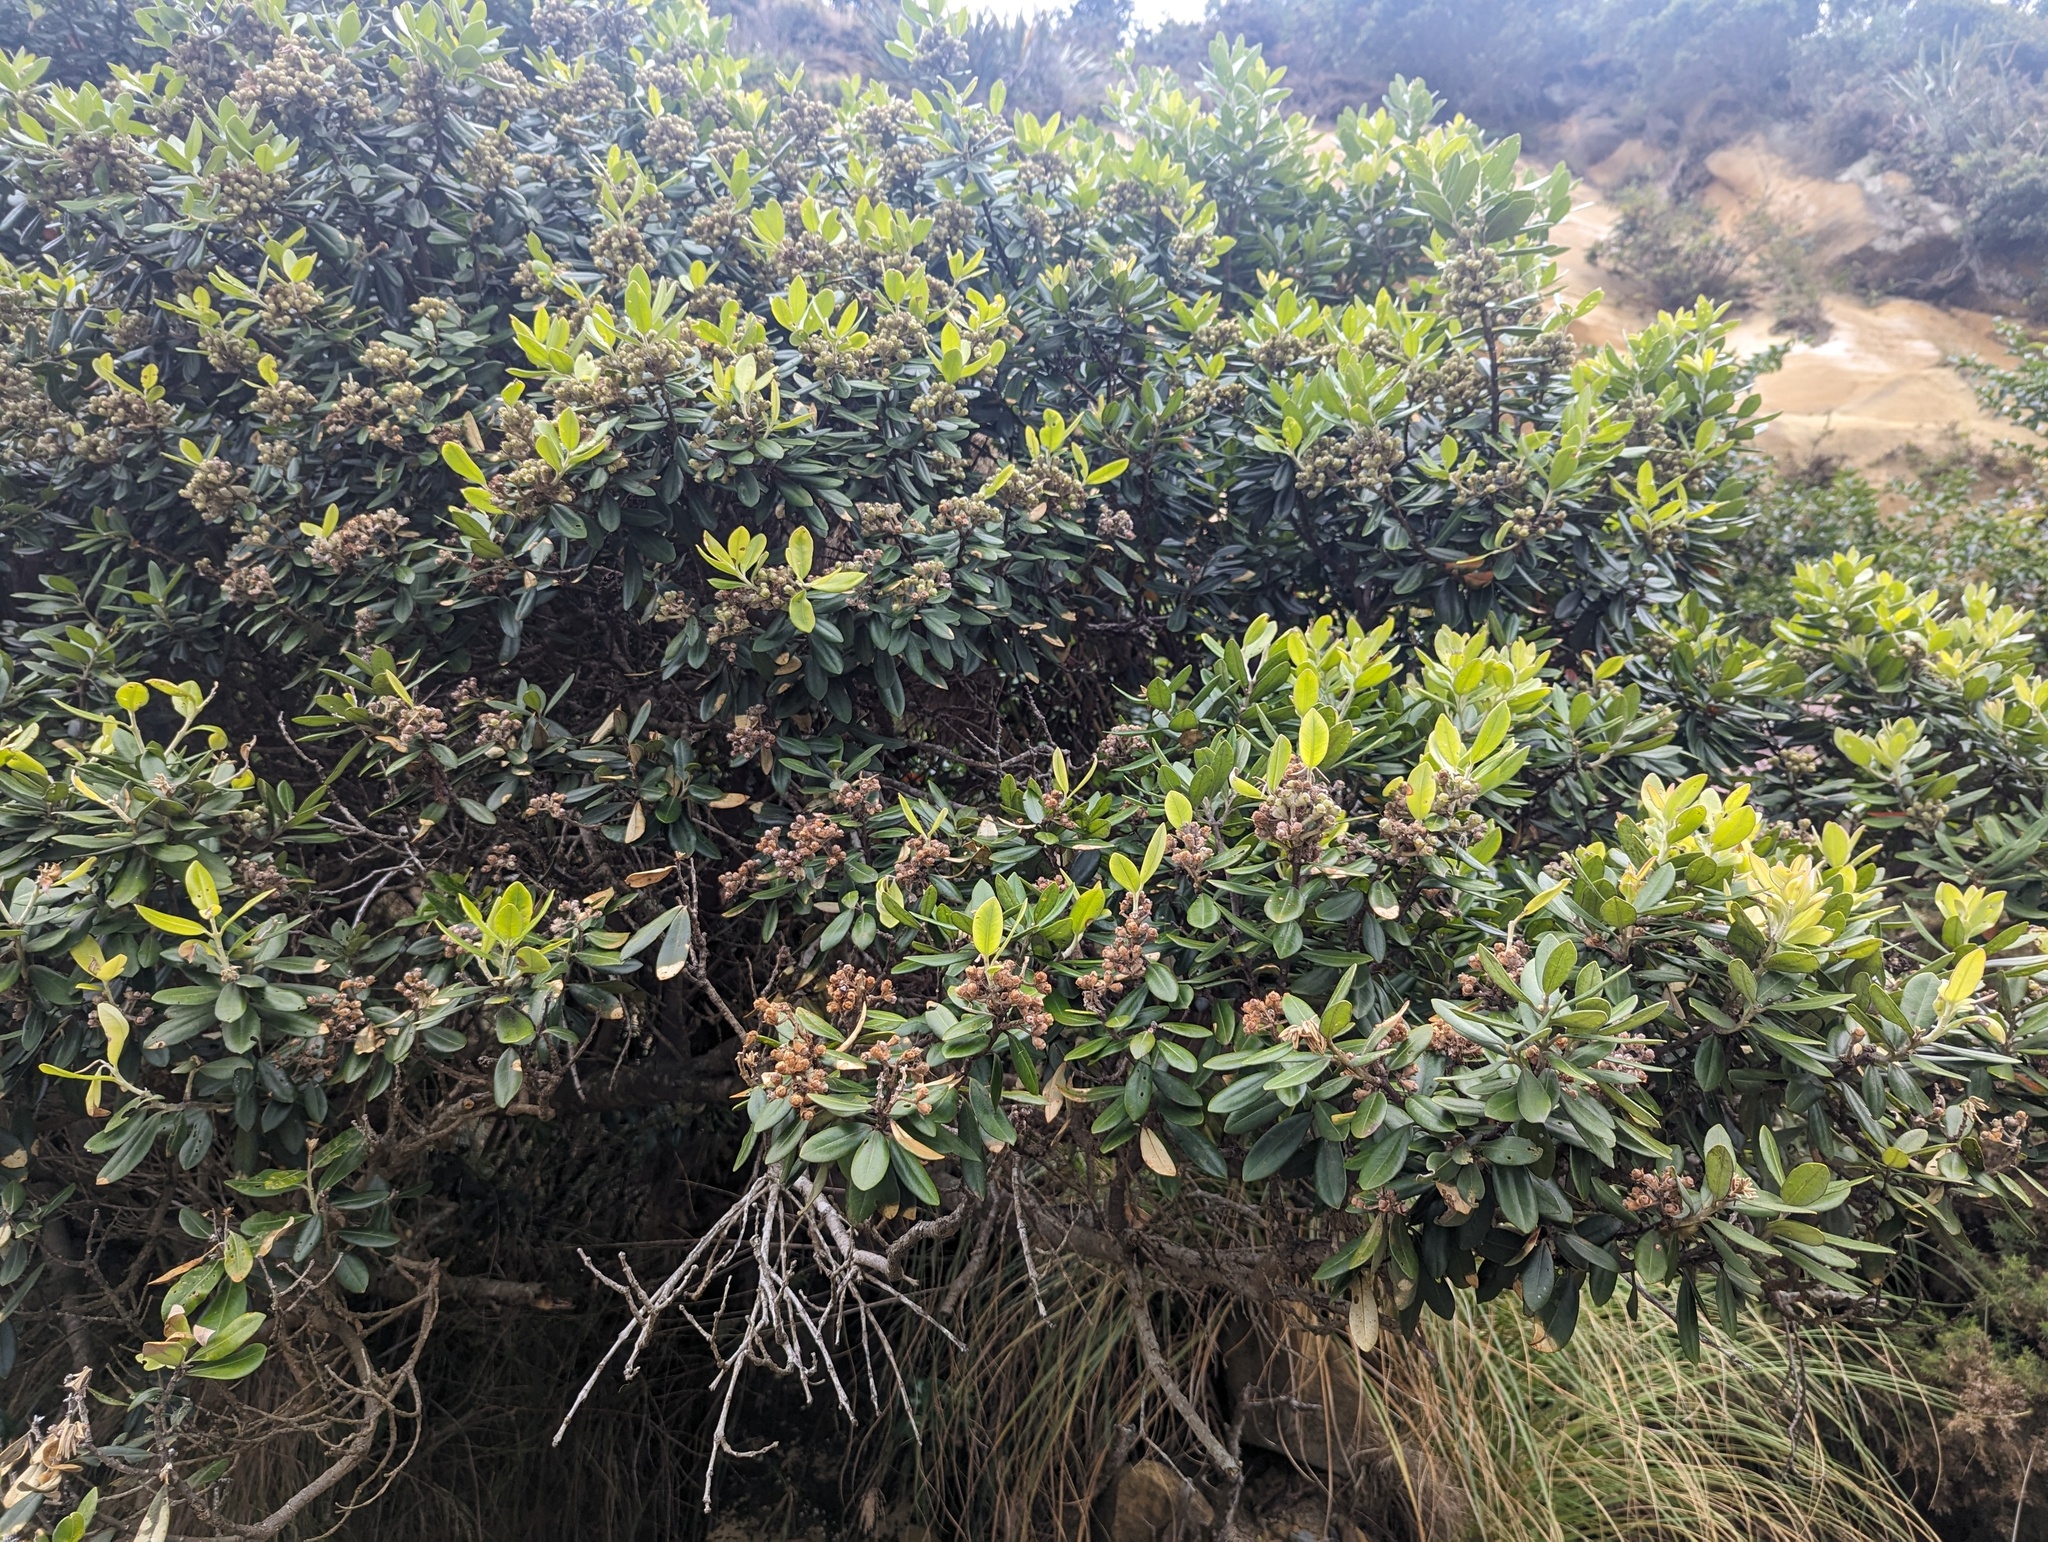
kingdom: Plantae
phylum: Tracheophyta
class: Magnoliopsida
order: Myrtales
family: Myrtaceae
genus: Metrosideros
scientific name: Metrosideros excelsa
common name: New zealand christmastree
